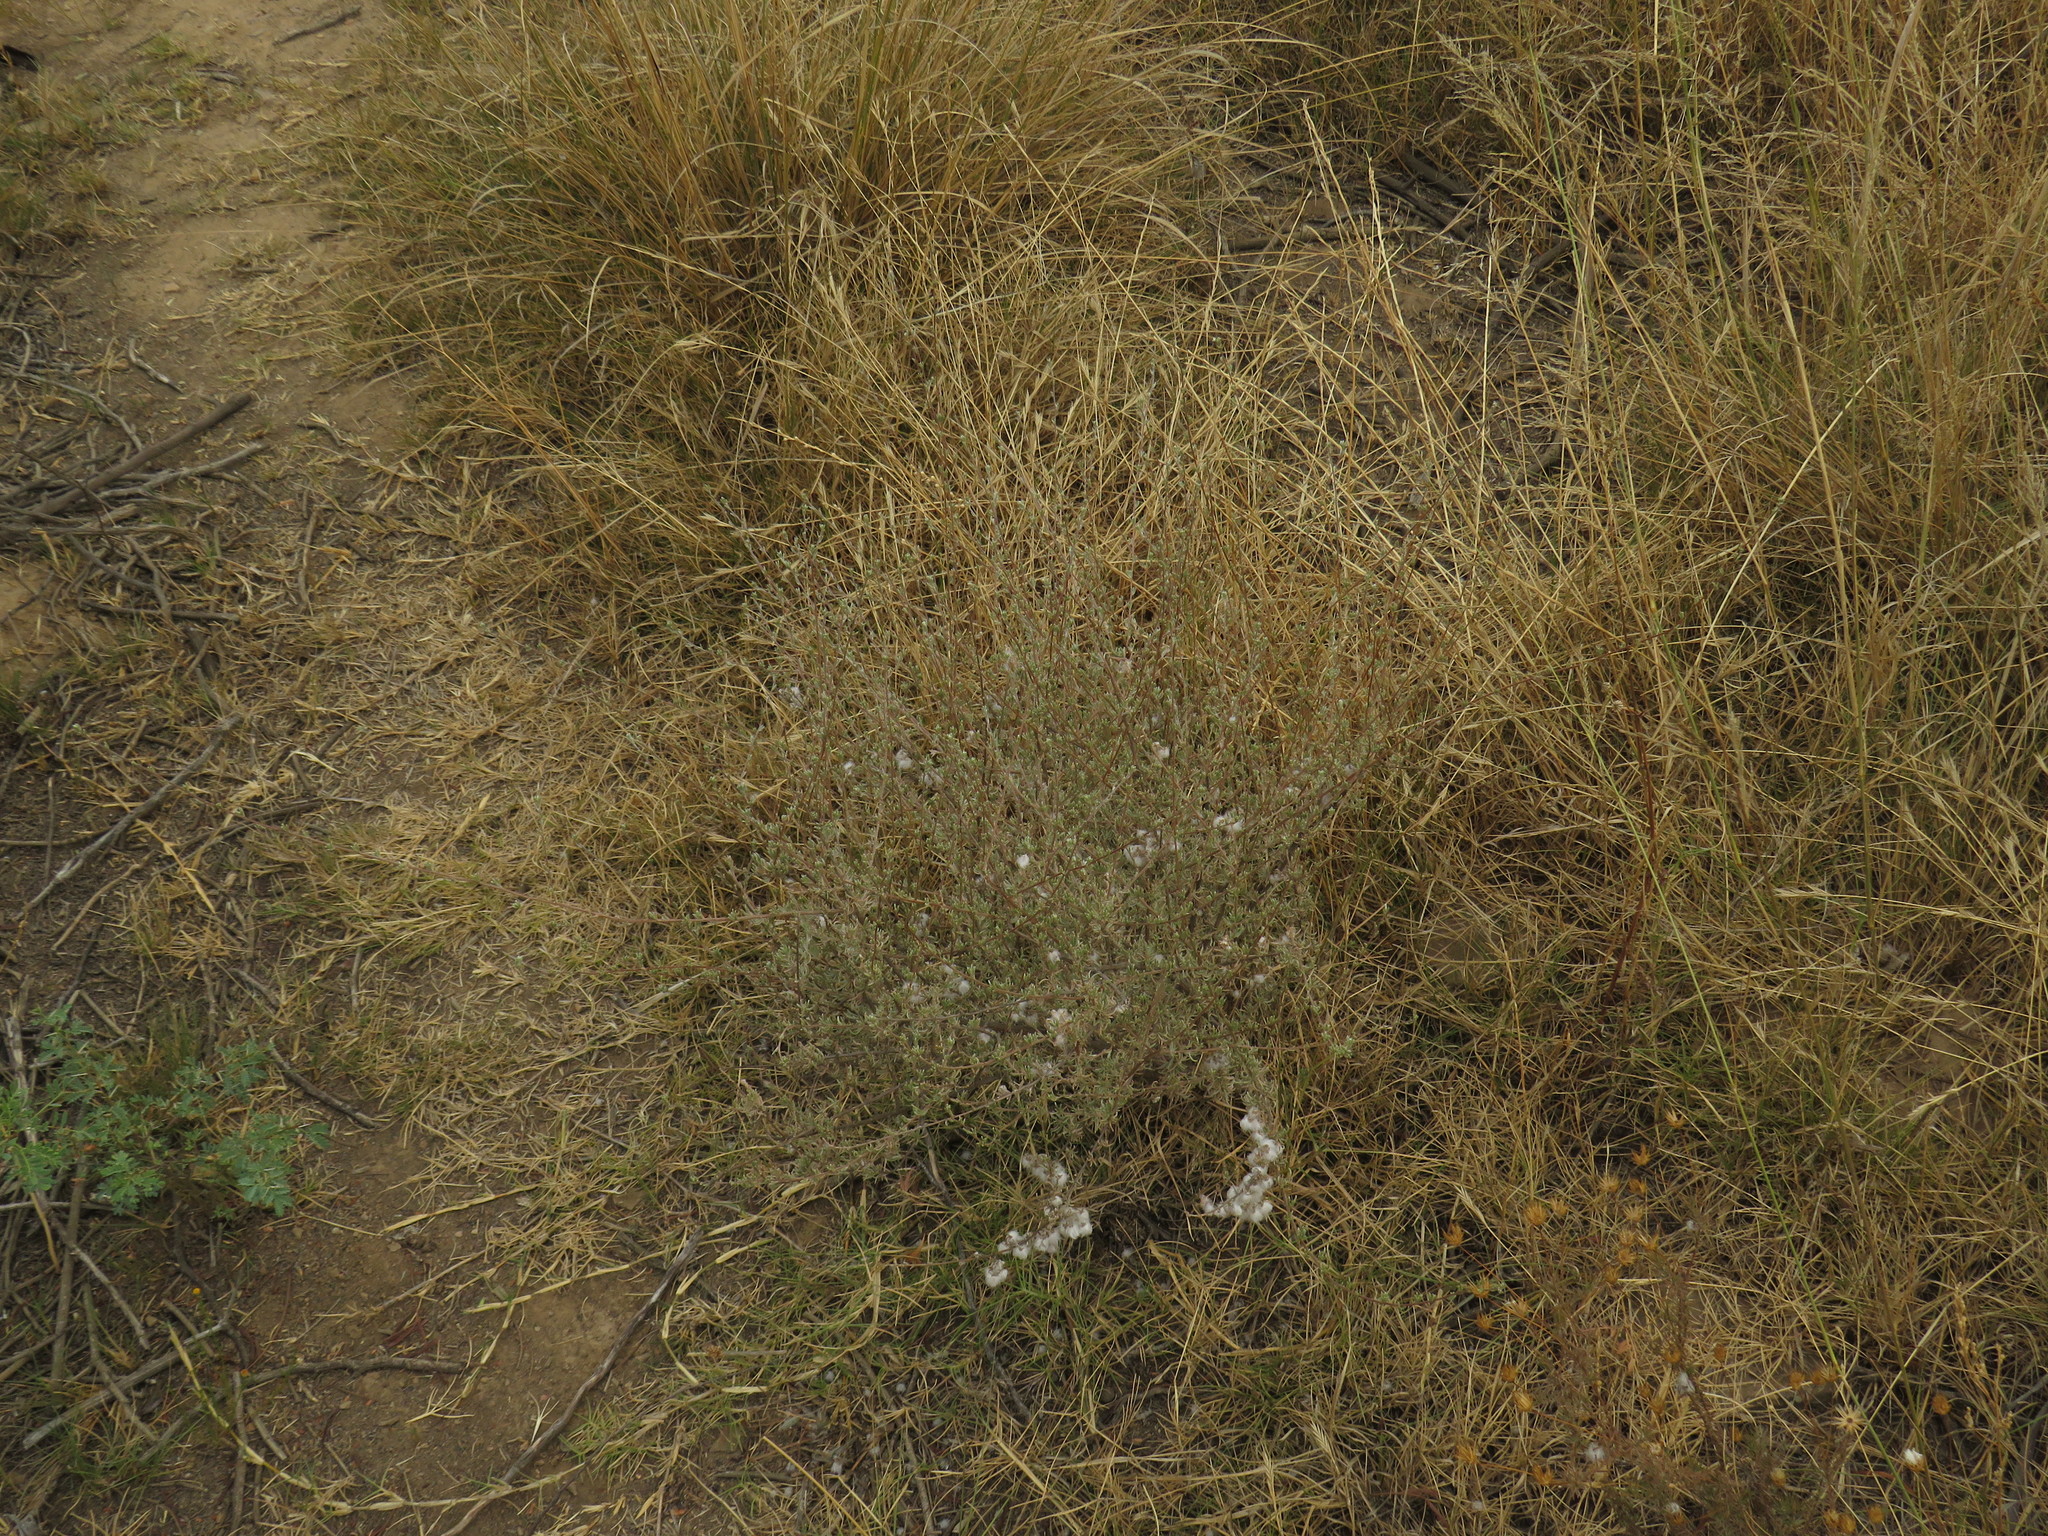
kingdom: Plantae
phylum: Tracheophyta
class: Magnoliopsida
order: Asterales
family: Asteraceae
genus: Eriocephalus
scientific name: Eriocephalus africanus
